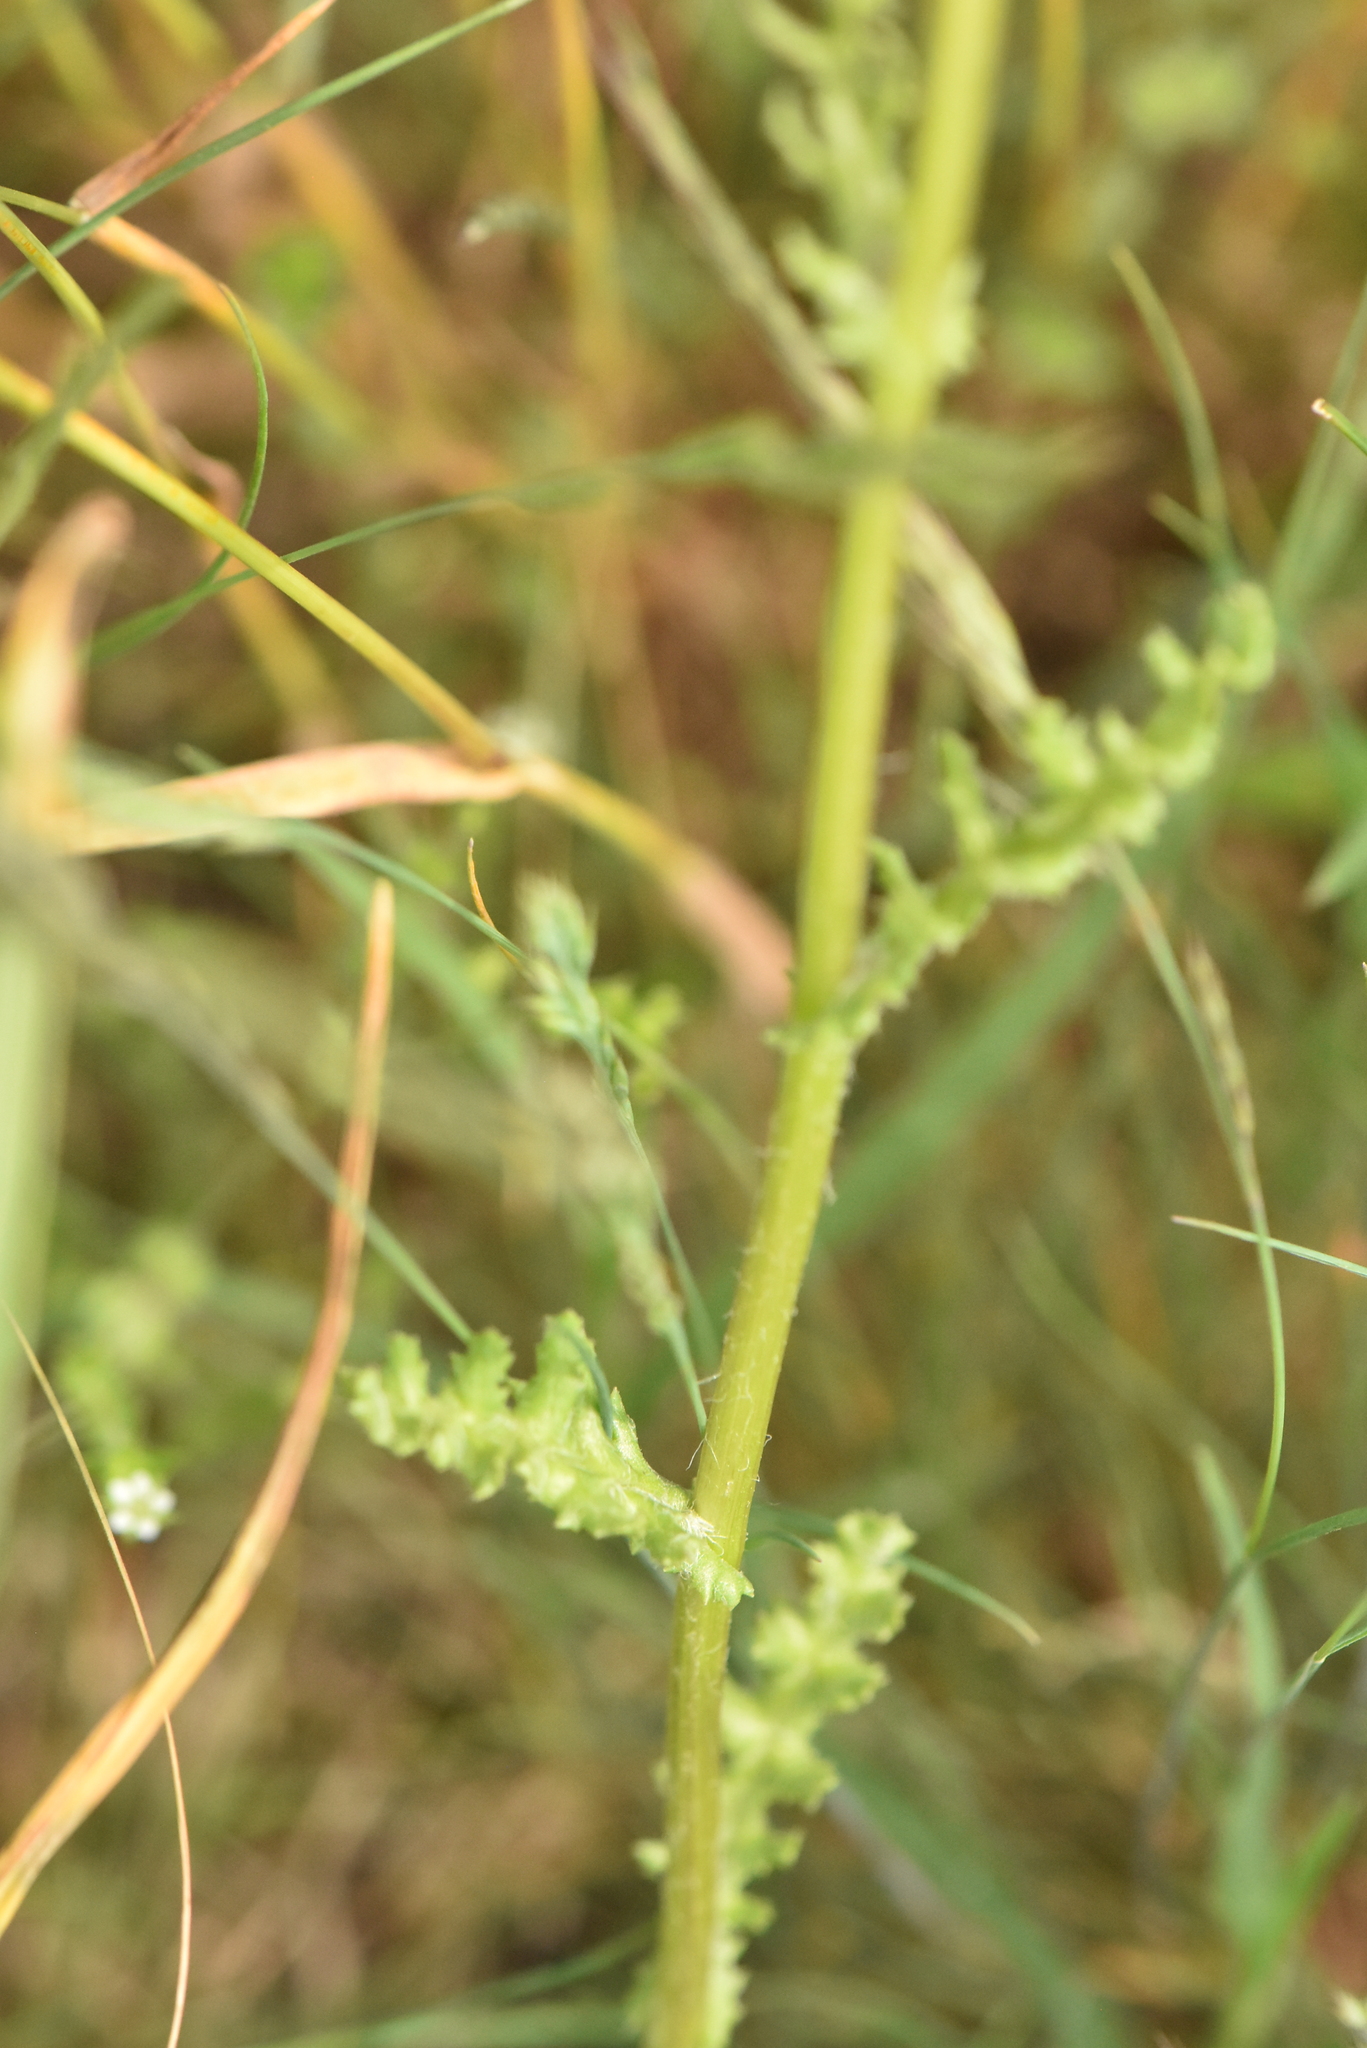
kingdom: Plantae
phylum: Tracheophyta
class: Magnoliopsida
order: Asterales
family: Asteraceae
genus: Senecio
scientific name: Senecio vernalis
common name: Eastern groundsel
